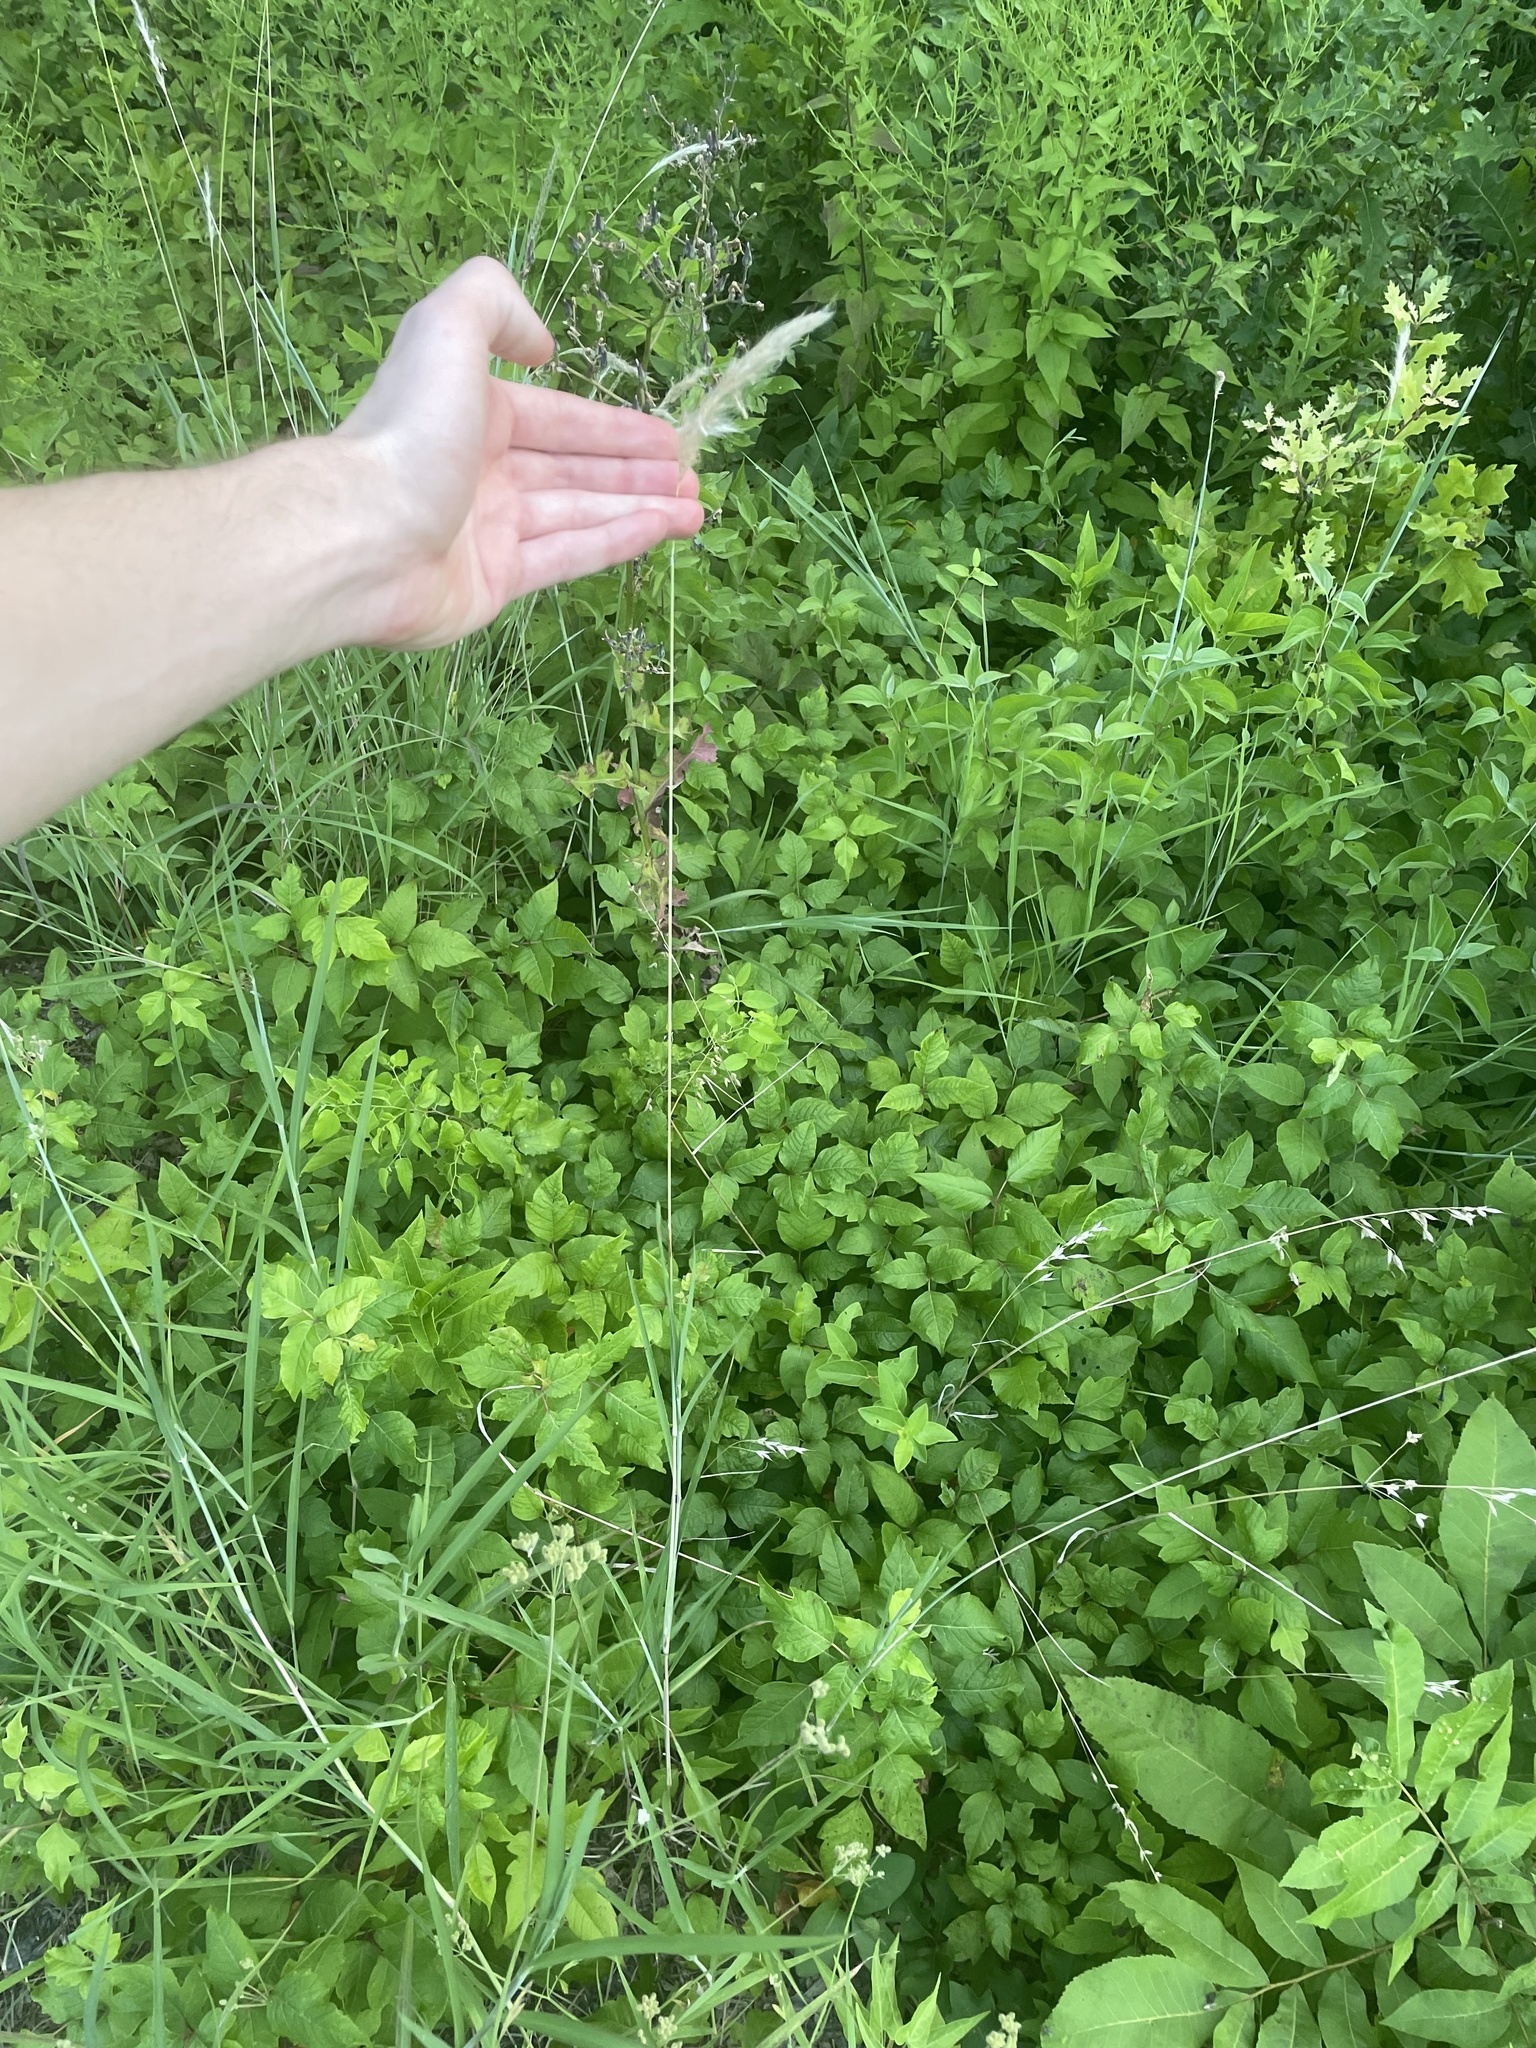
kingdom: Plantae
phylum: Tracheophyta
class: Liliopsida
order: Poales
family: Poaceae
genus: Bothriochloa
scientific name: Bothriochloa torreyana
